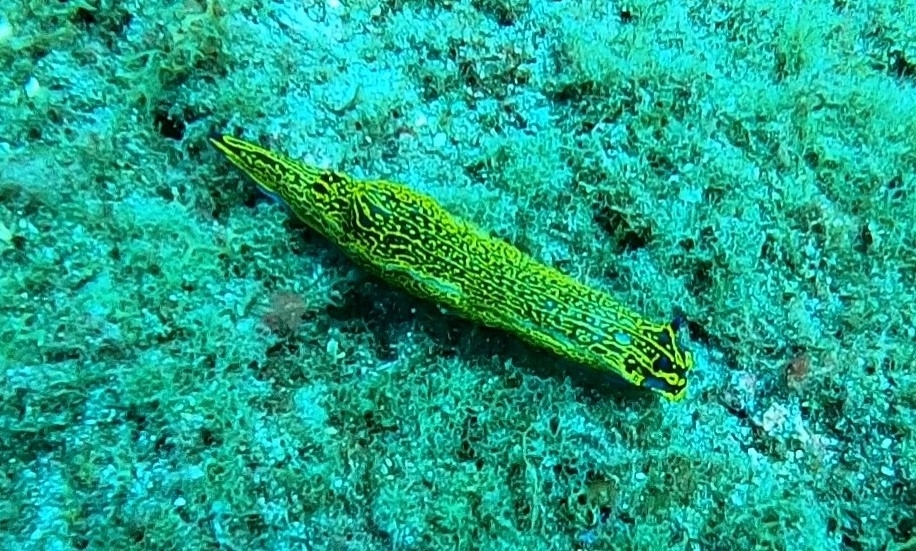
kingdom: Animalia
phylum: Mollusca
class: Gastropoda
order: Nudibranchia
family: Chromodorididae
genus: Felimare
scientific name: Felimare picta
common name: Giant doris
